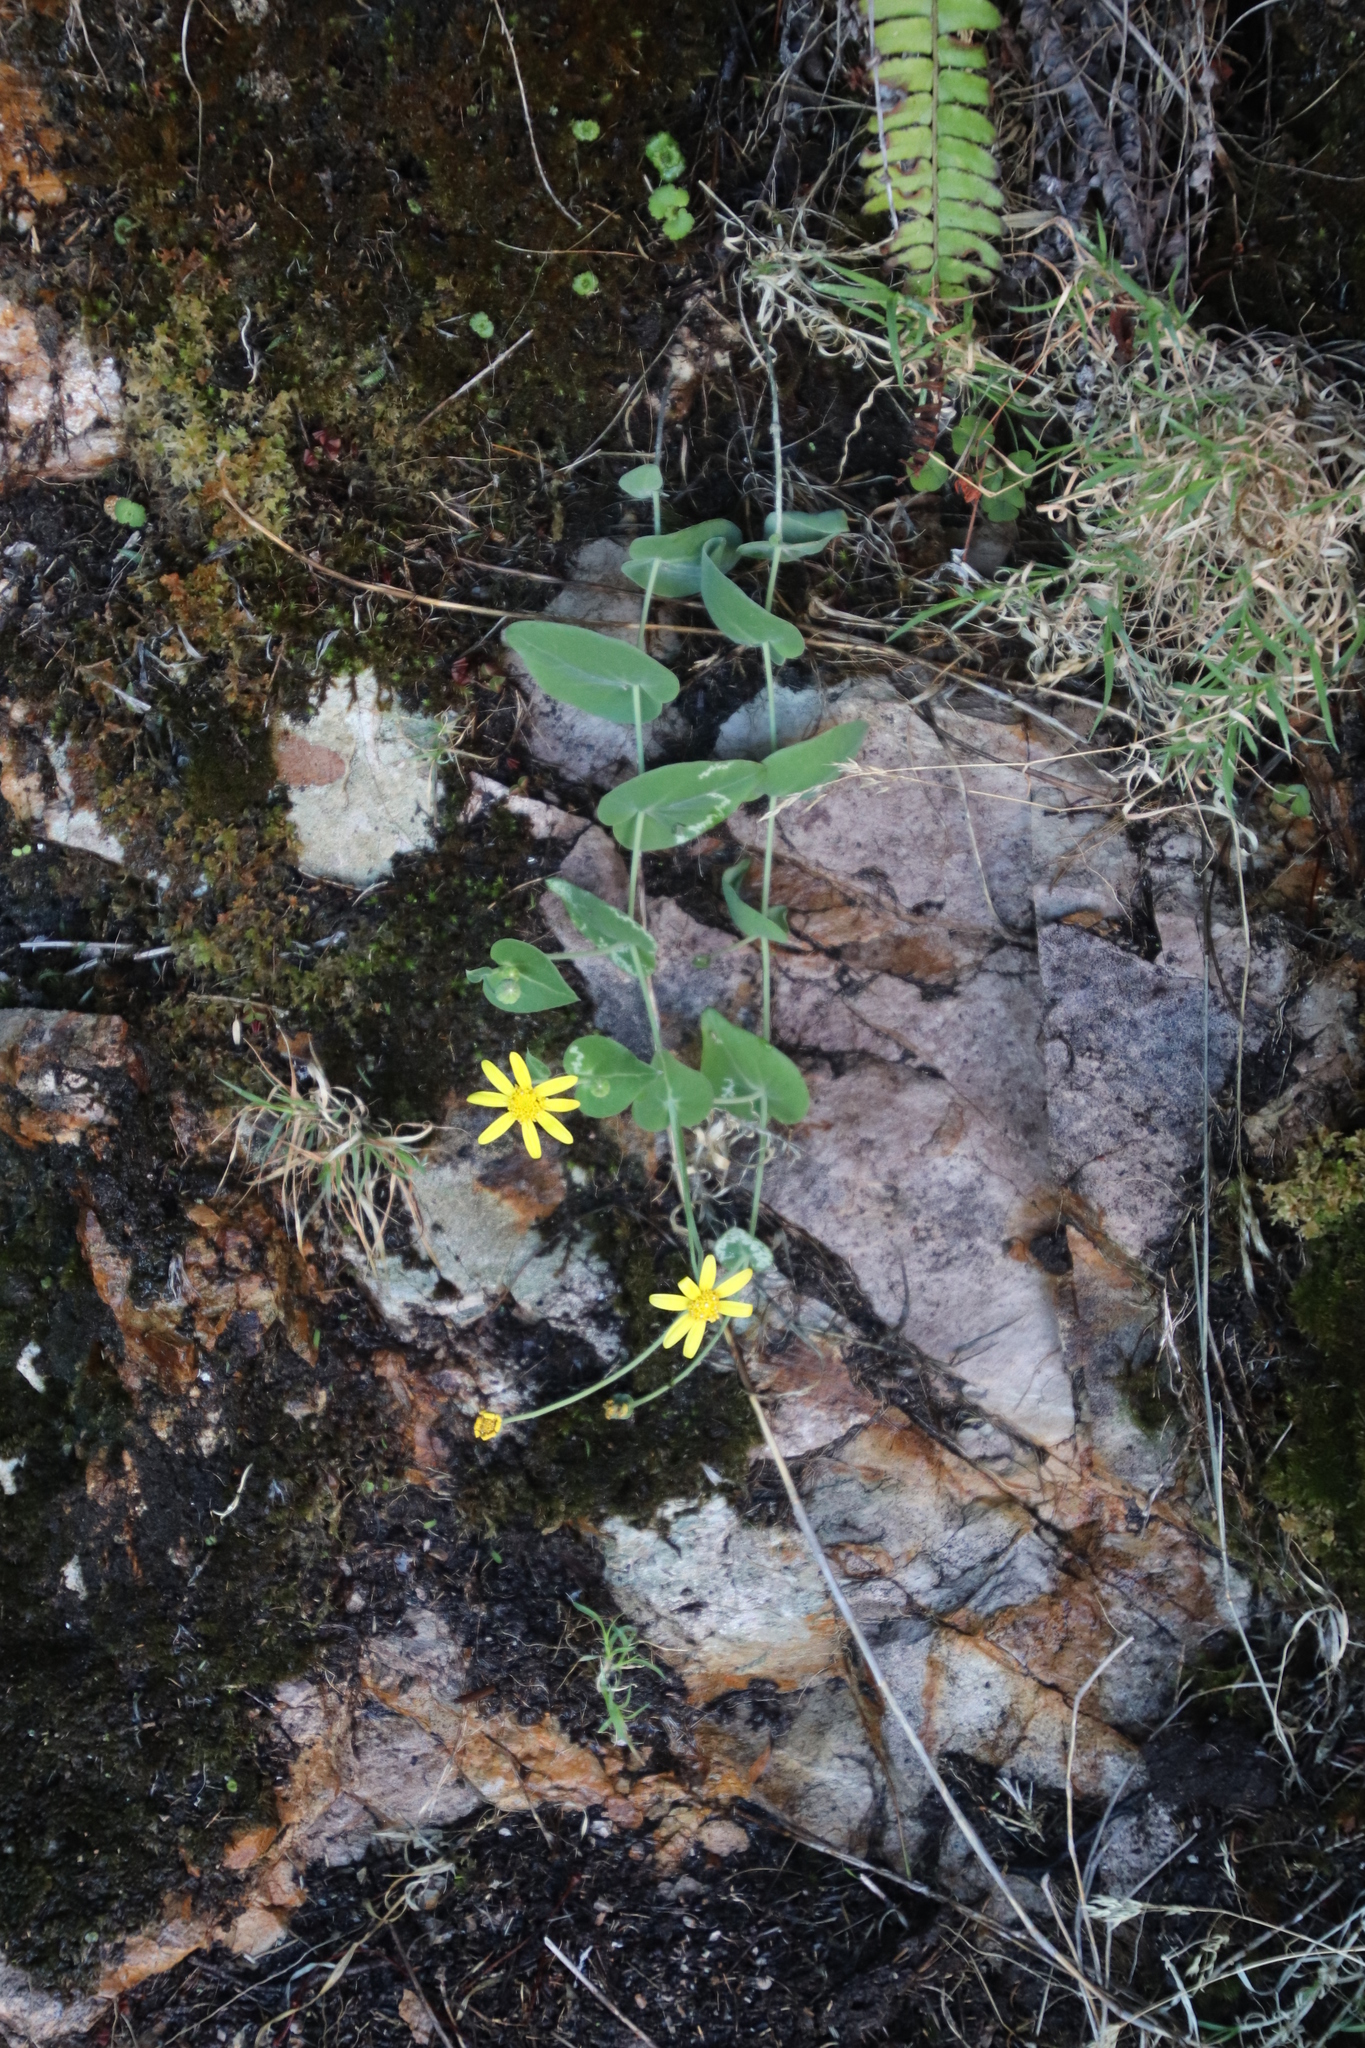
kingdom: Plantae
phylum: Tracheophyta
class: Magnoliopsida
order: Asterales
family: Asteraceae
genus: Othonna
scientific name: Othonna perfoliata
